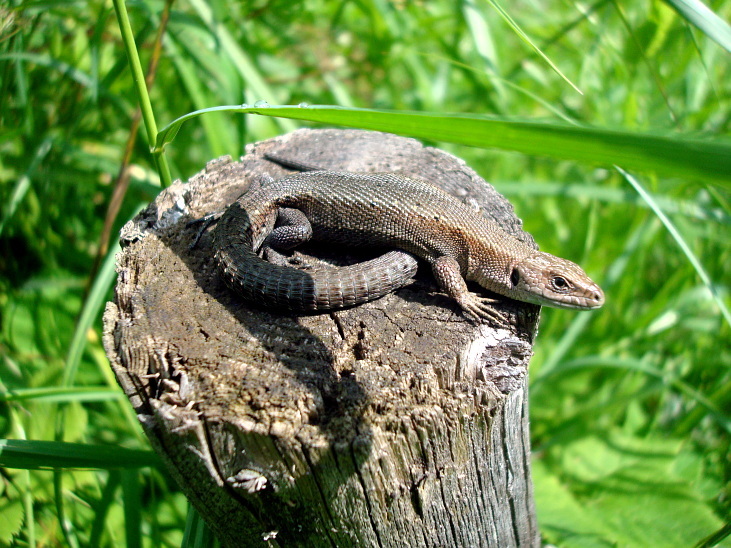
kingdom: Animalia
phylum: Chordata
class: Squamata
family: Lacertidae
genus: Zootoca
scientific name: Zootoca vivipara
